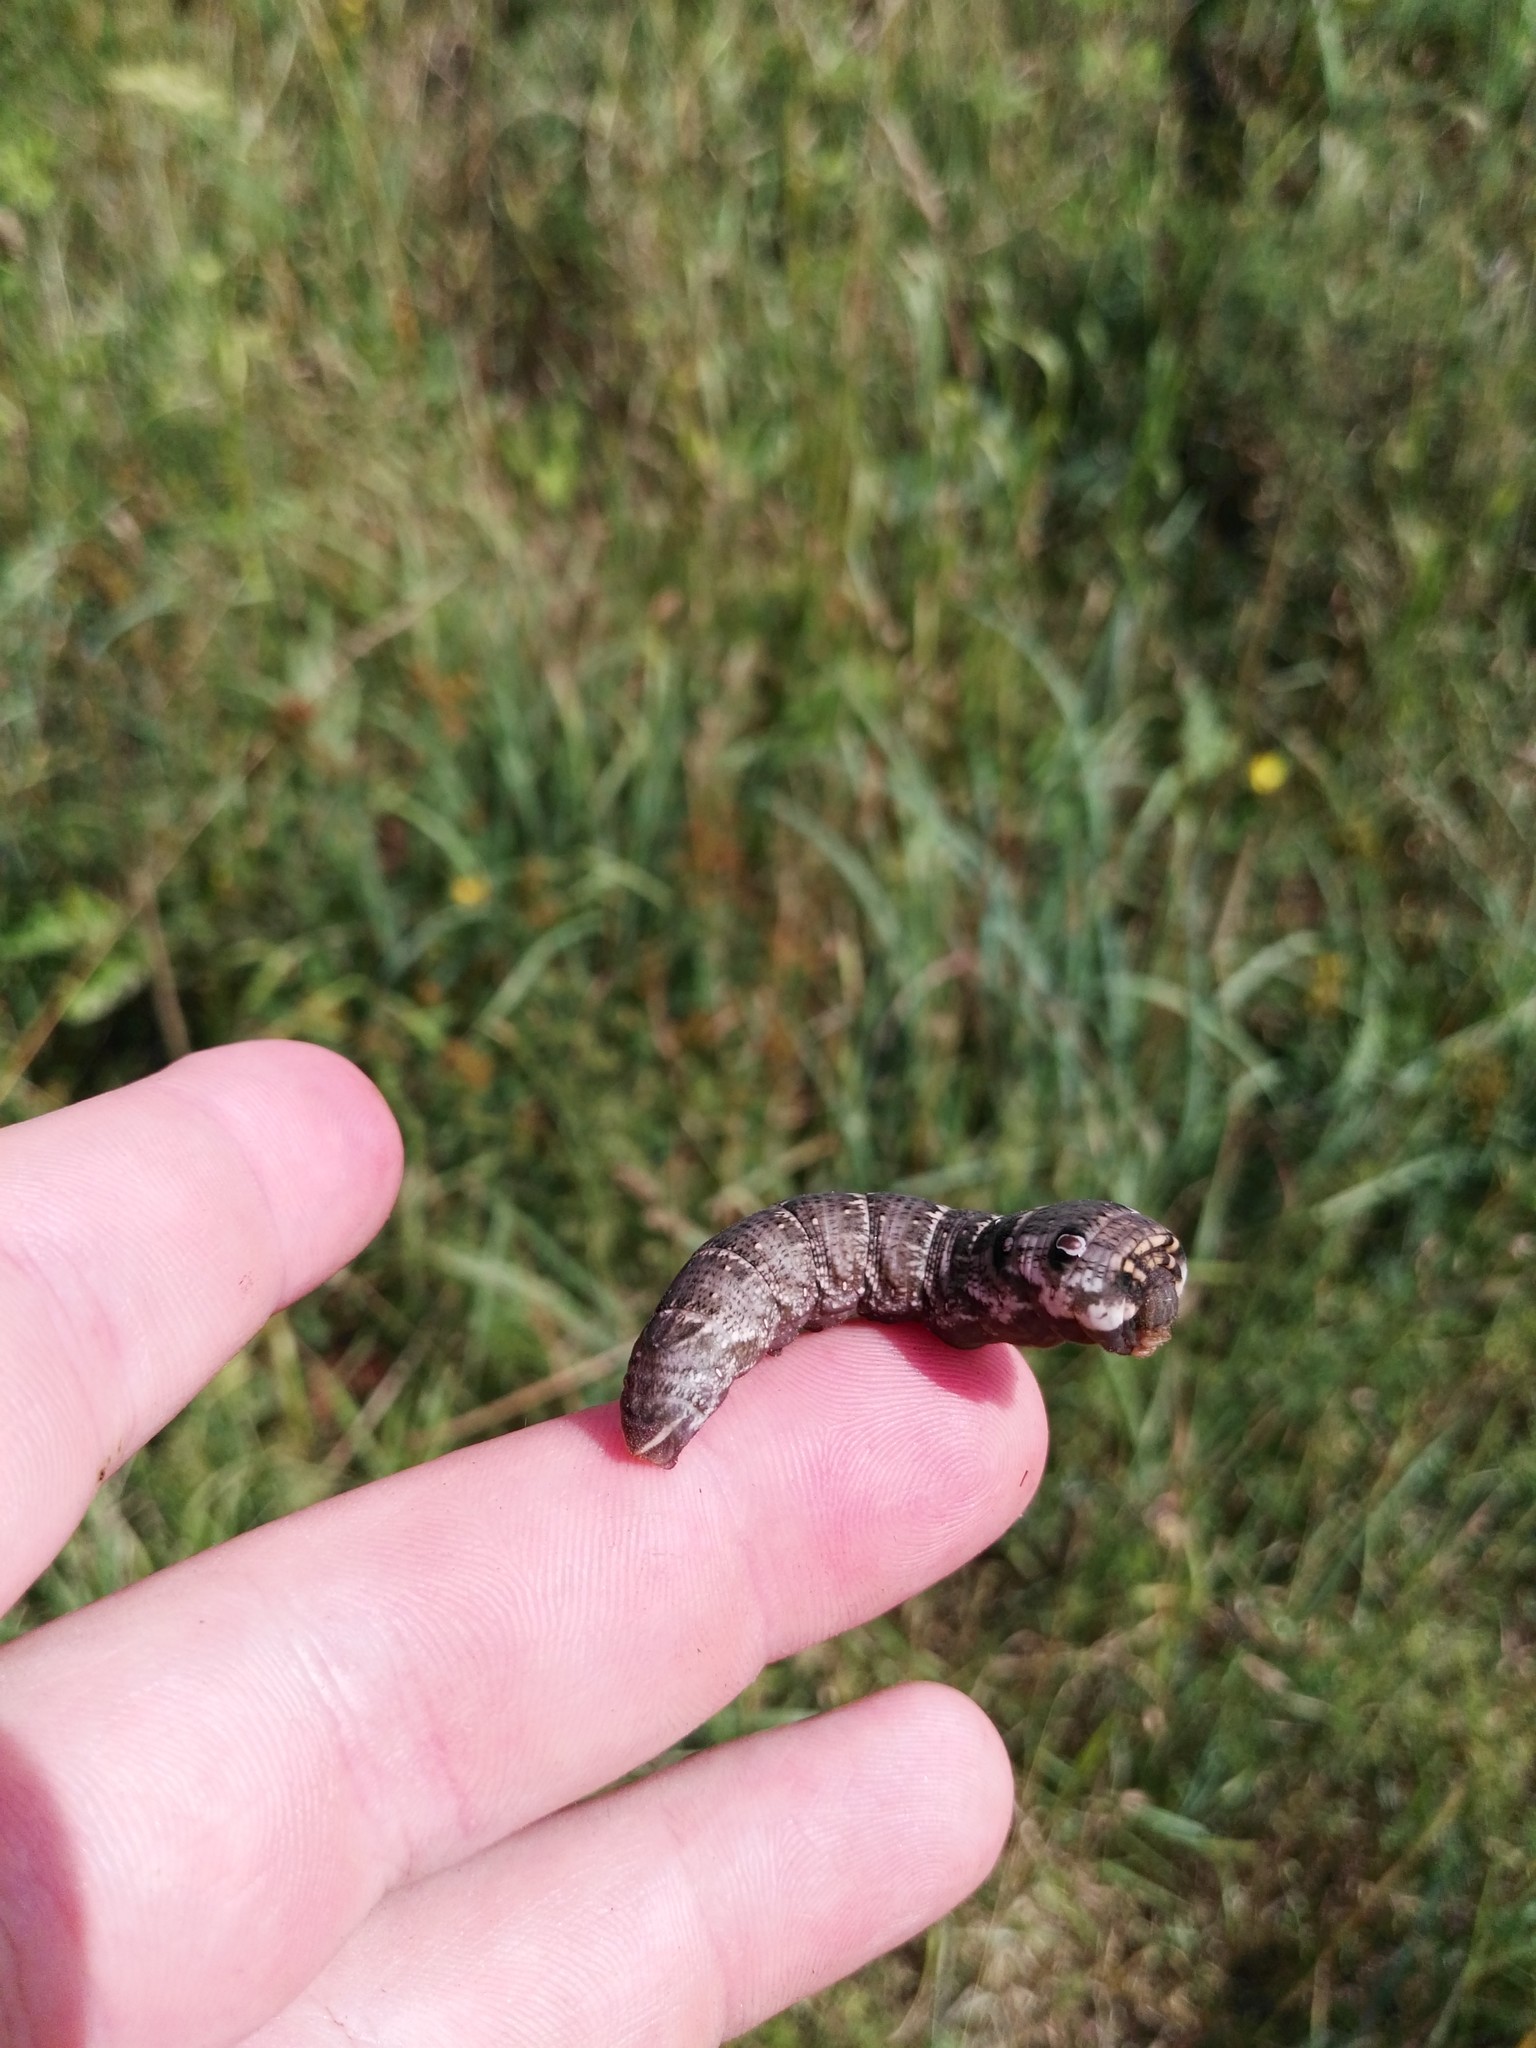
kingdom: Animalia
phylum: Arthropoda
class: Insecta
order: Lepidoptera
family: Sphingidae
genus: Deilephila
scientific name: Deilephila porcellus
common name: Small elephant hawk-moth
